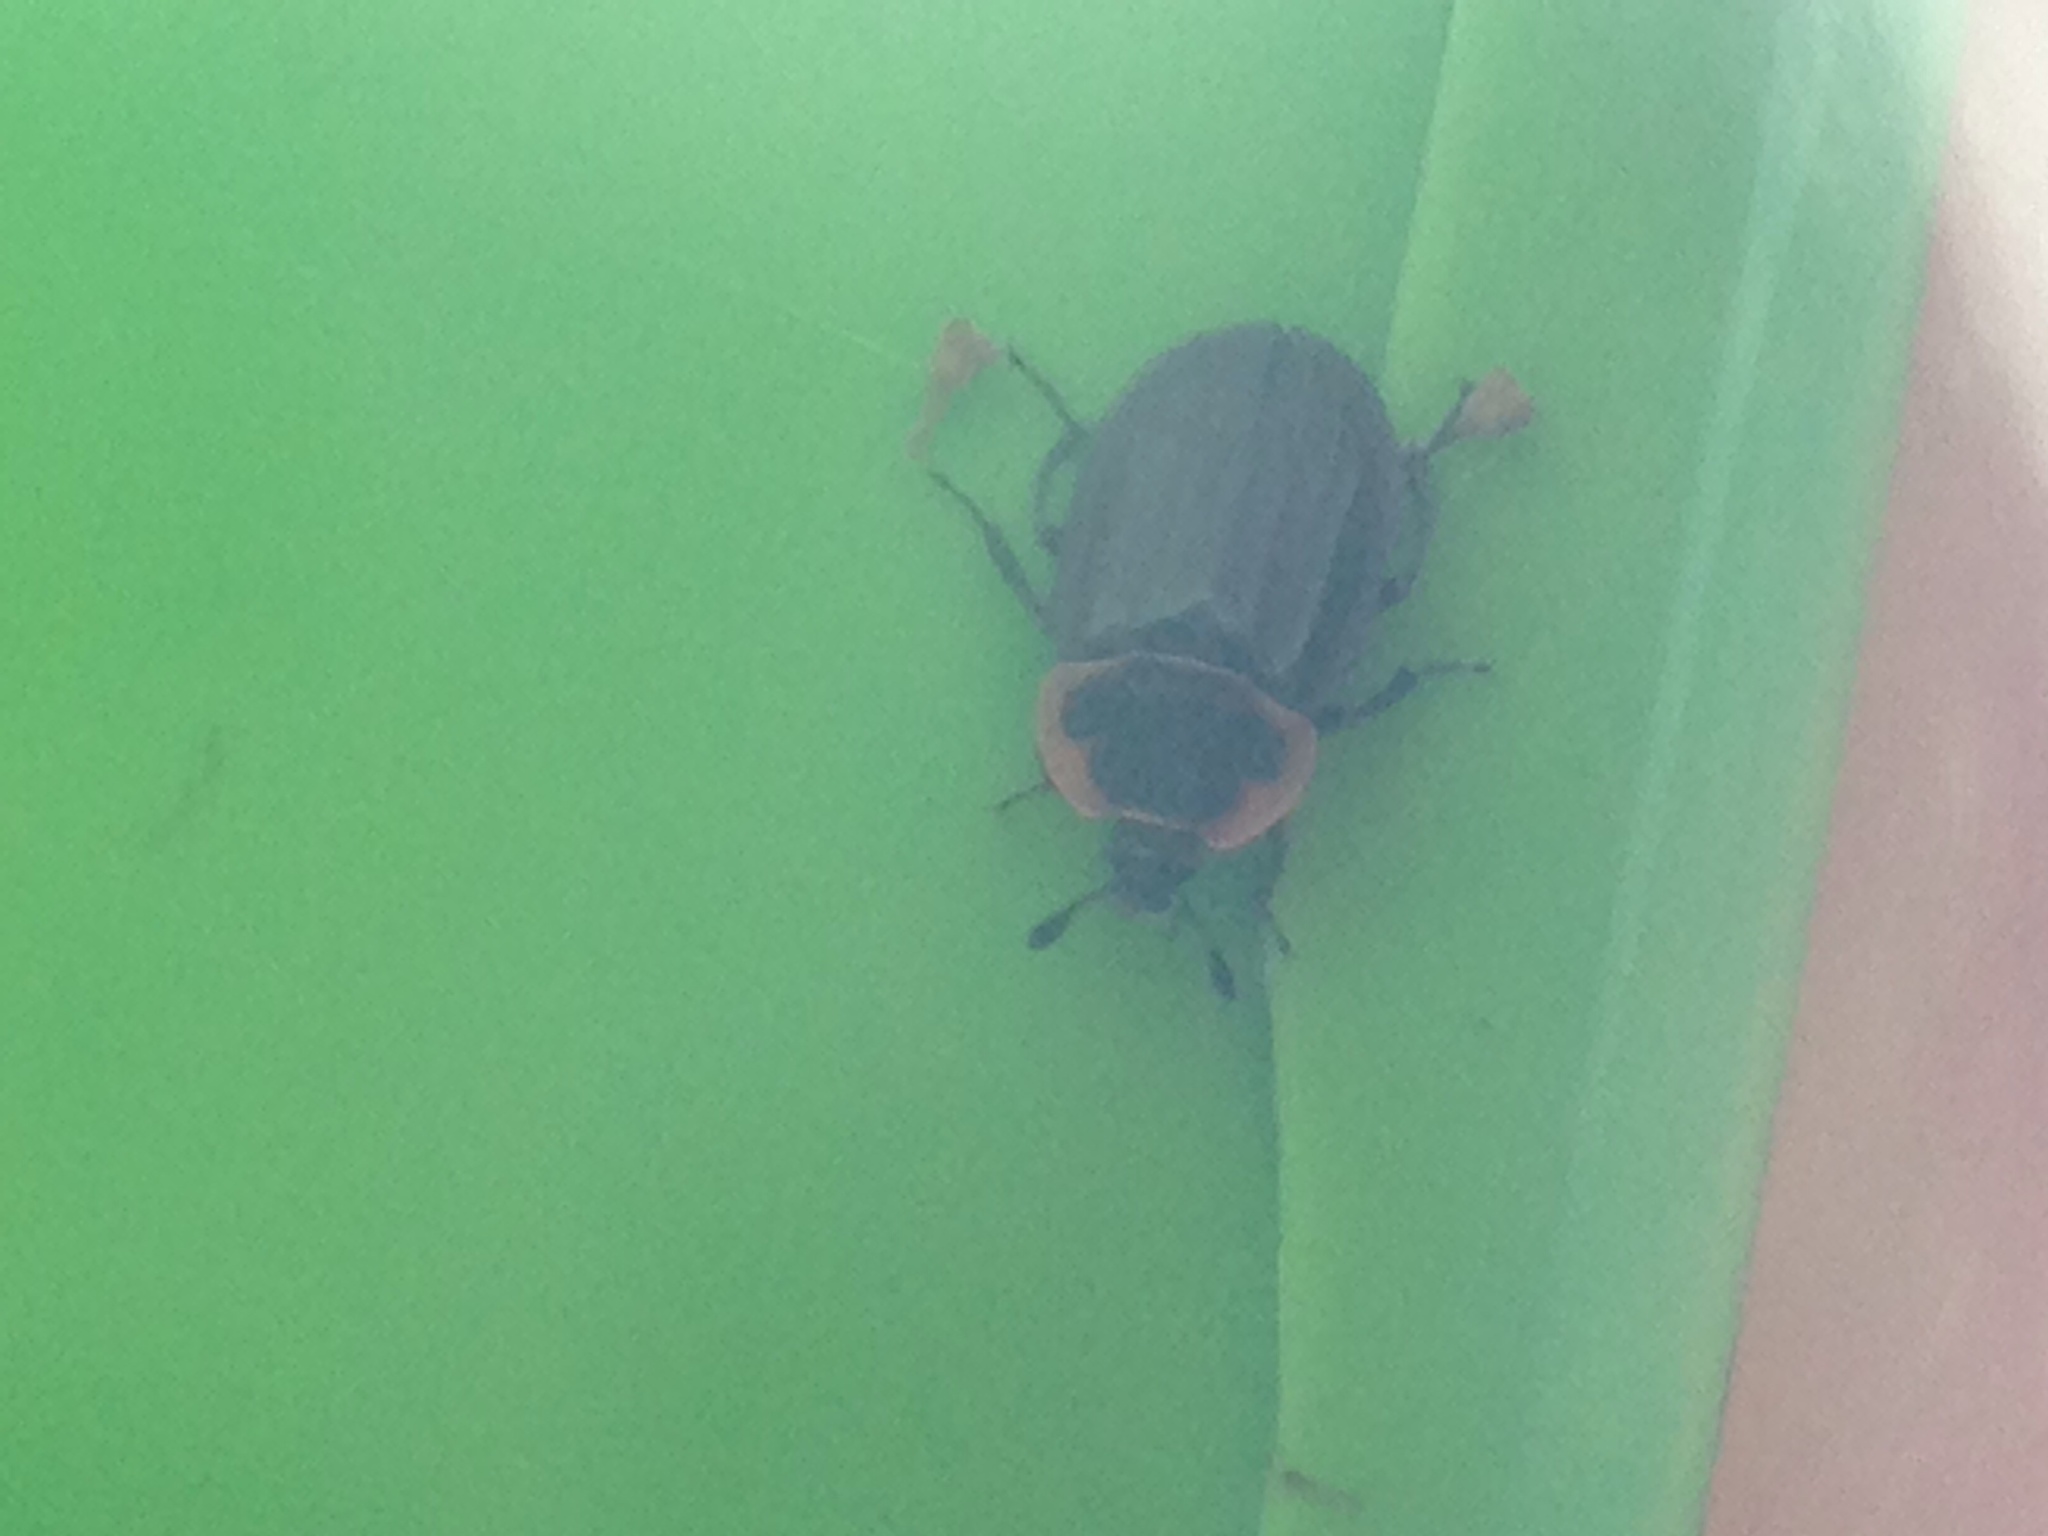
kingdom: Animalia
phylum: Arthropoda
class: Insecta
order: Coleoptera
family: Staphylinidae
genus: Oiceoptoma
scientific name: Oiceoptoma noveboracense
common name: Margined carrion beetle
